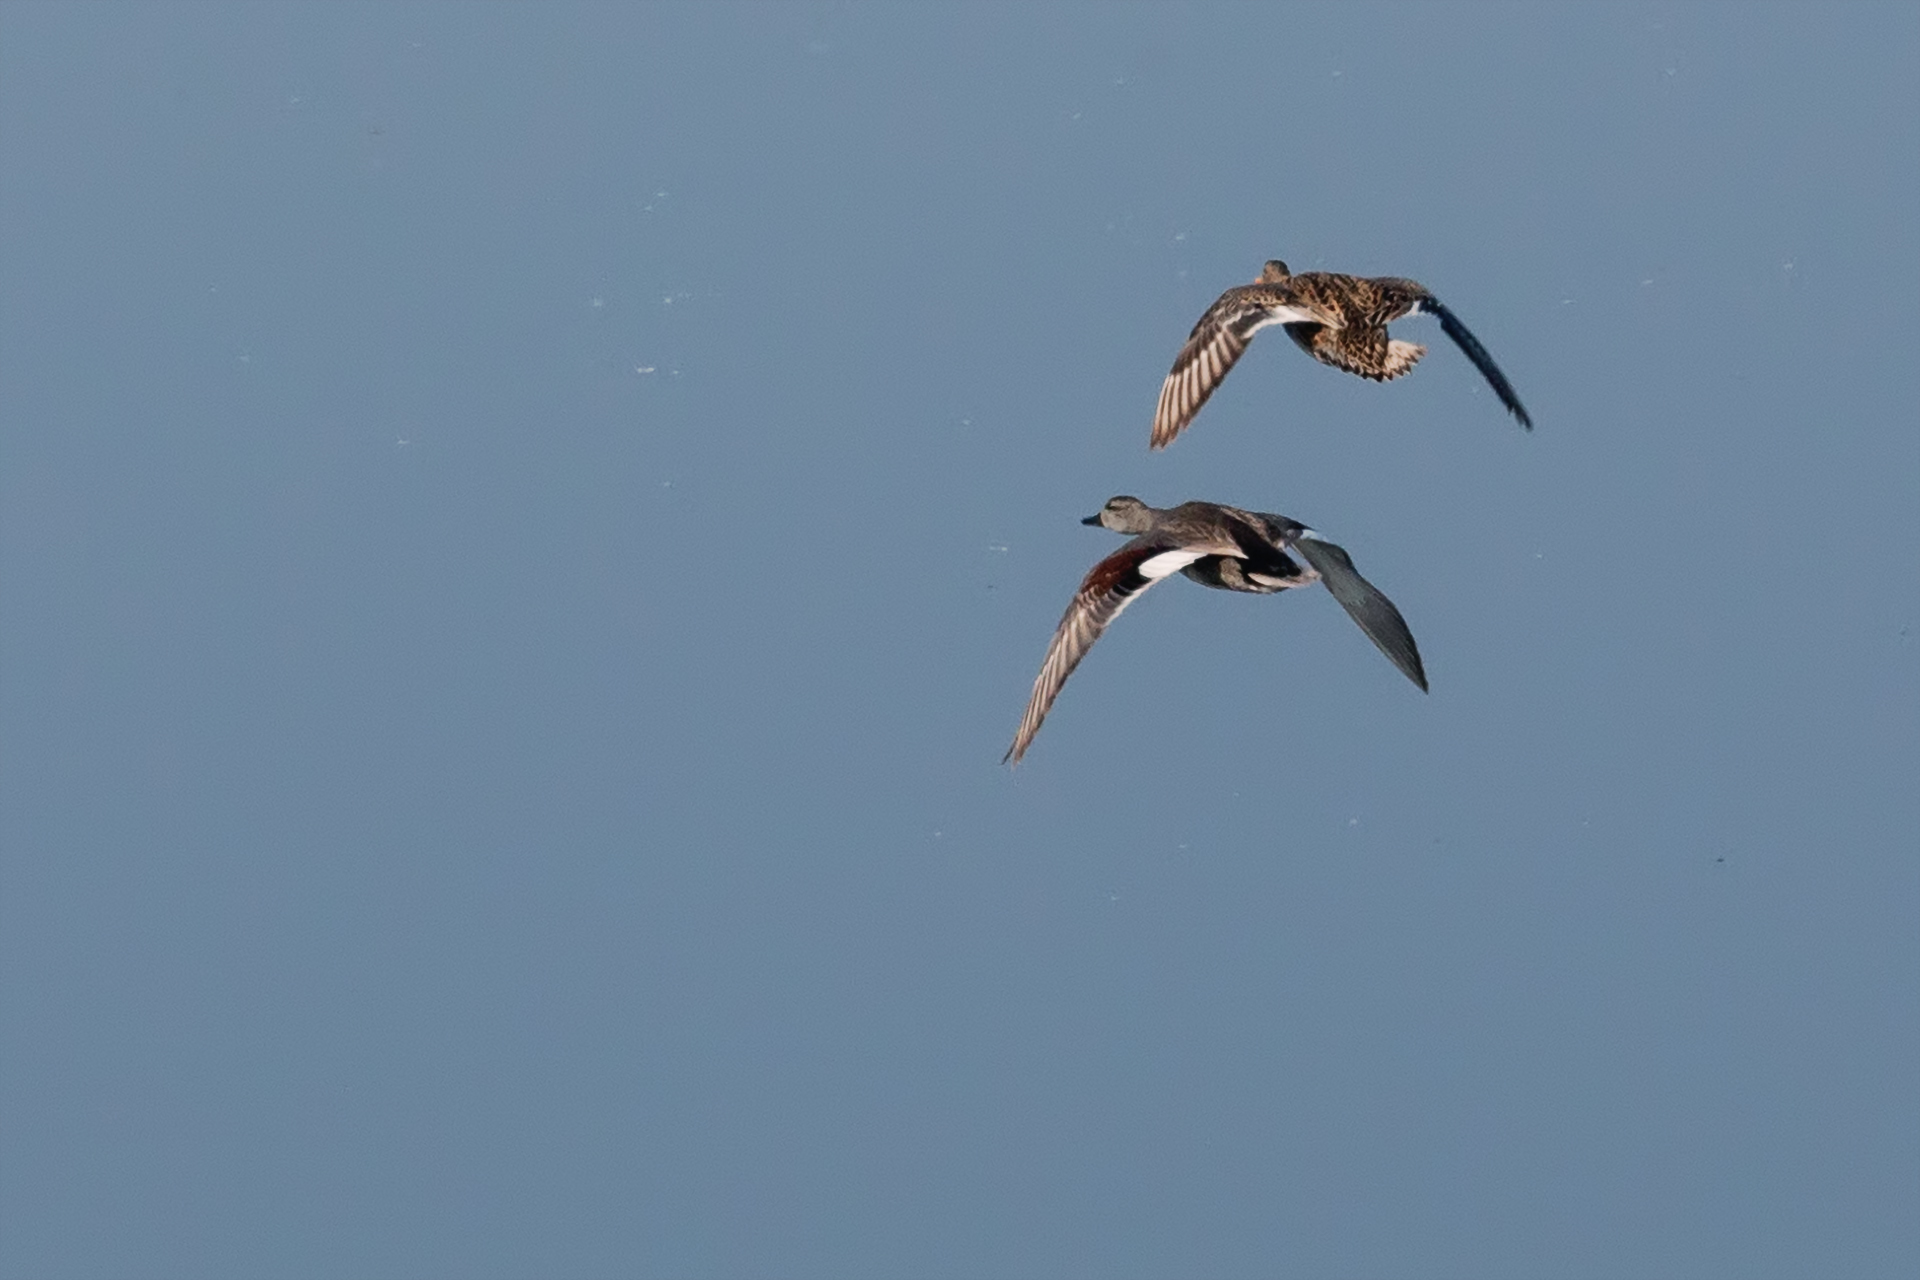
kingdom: Animalia
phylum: Chordata
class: Aves
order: Anseriformes
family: Anatidae
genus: Mareca
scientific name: Mareca strepera
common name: Gadwall
